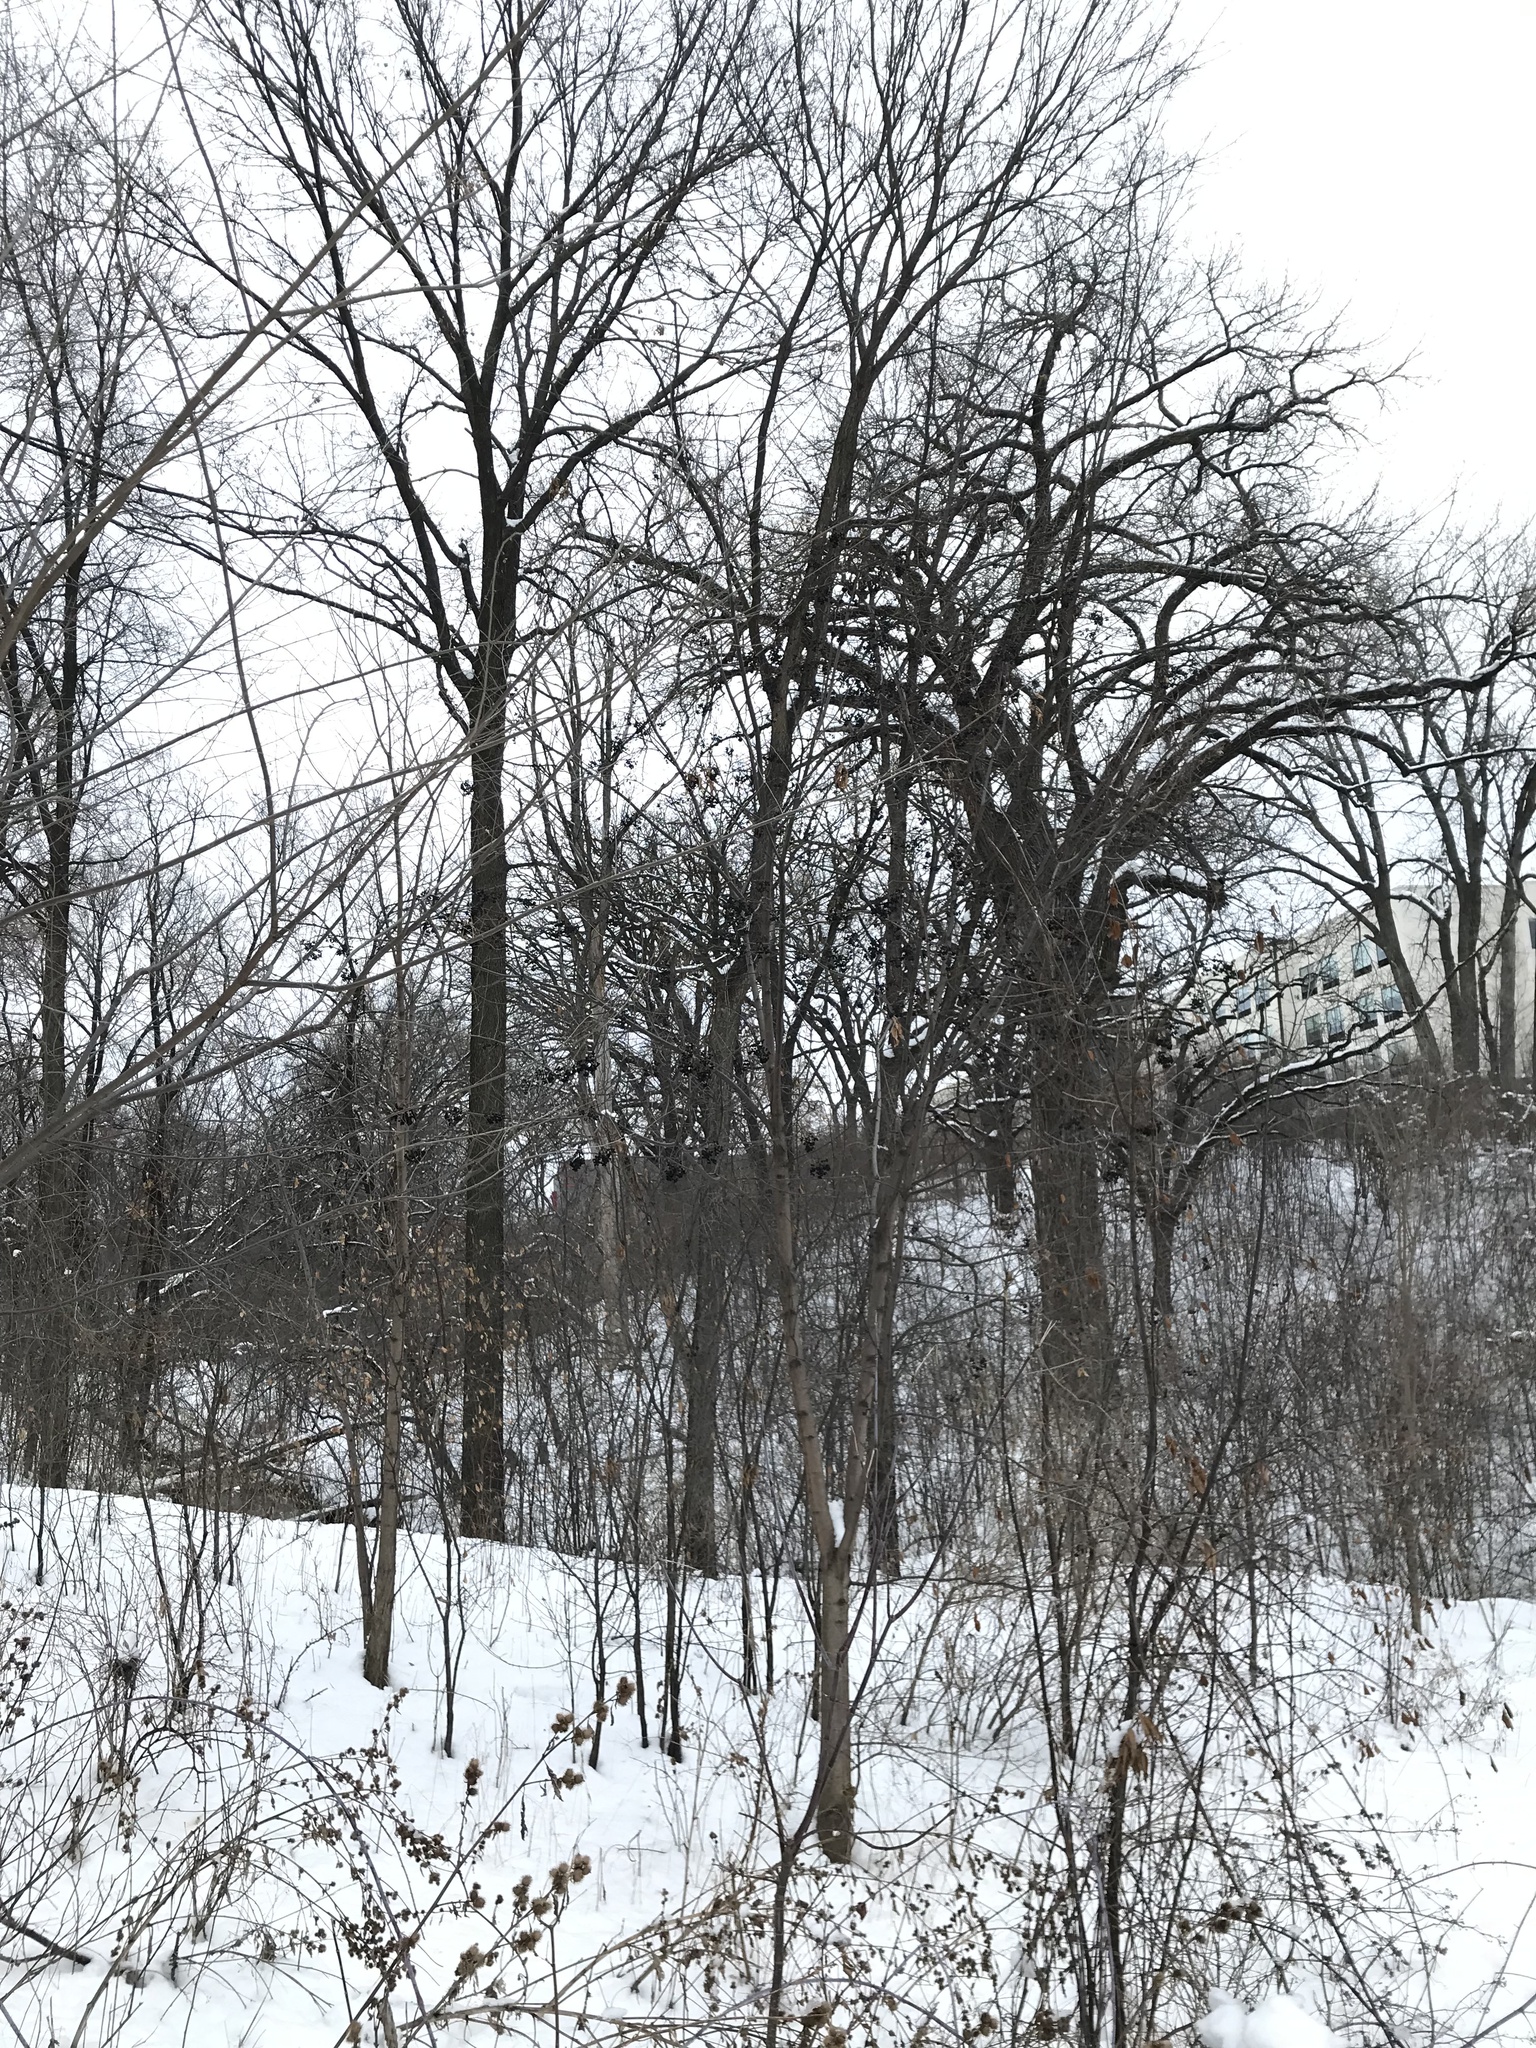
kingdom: Plantae
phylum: Tracheophyta
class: Magnoliopsida
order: Sapindales
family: Rutaceae
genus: Phellodendron
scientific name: Phellodendron amurense
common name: Amur corktree
